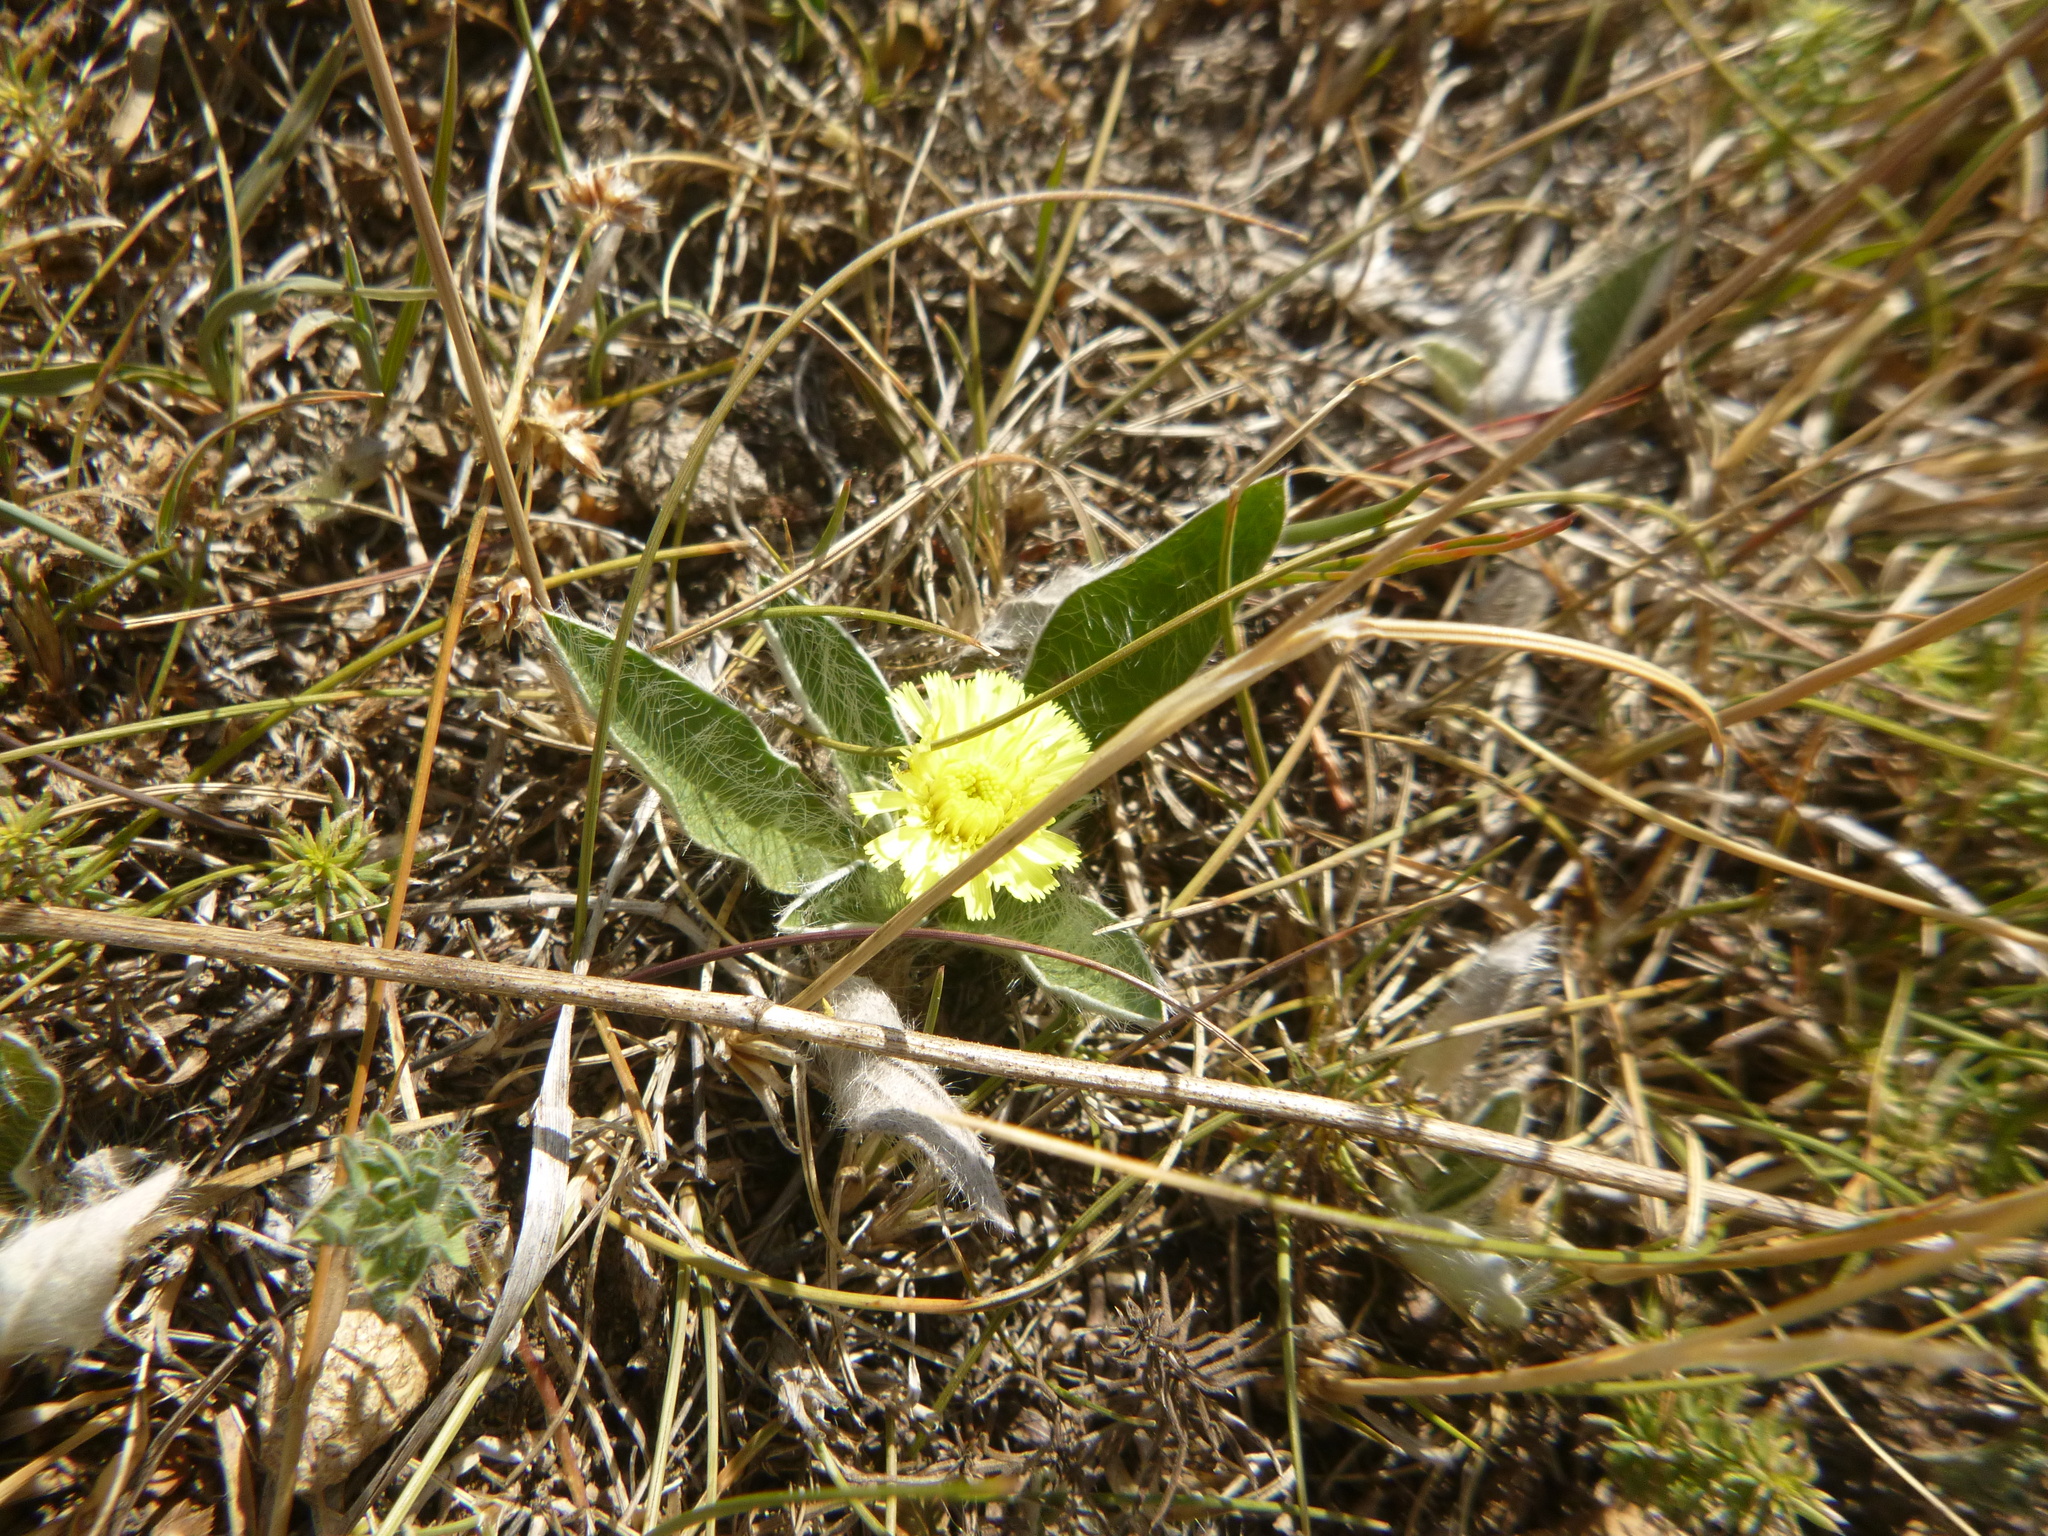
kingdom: Plantae
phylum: Tracheophyta
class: Magnoliopsida
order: Asterales
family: Asteraceae
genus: Pilosella
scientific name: Pilosella officinarum
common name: Mouse-ear hawkweed
